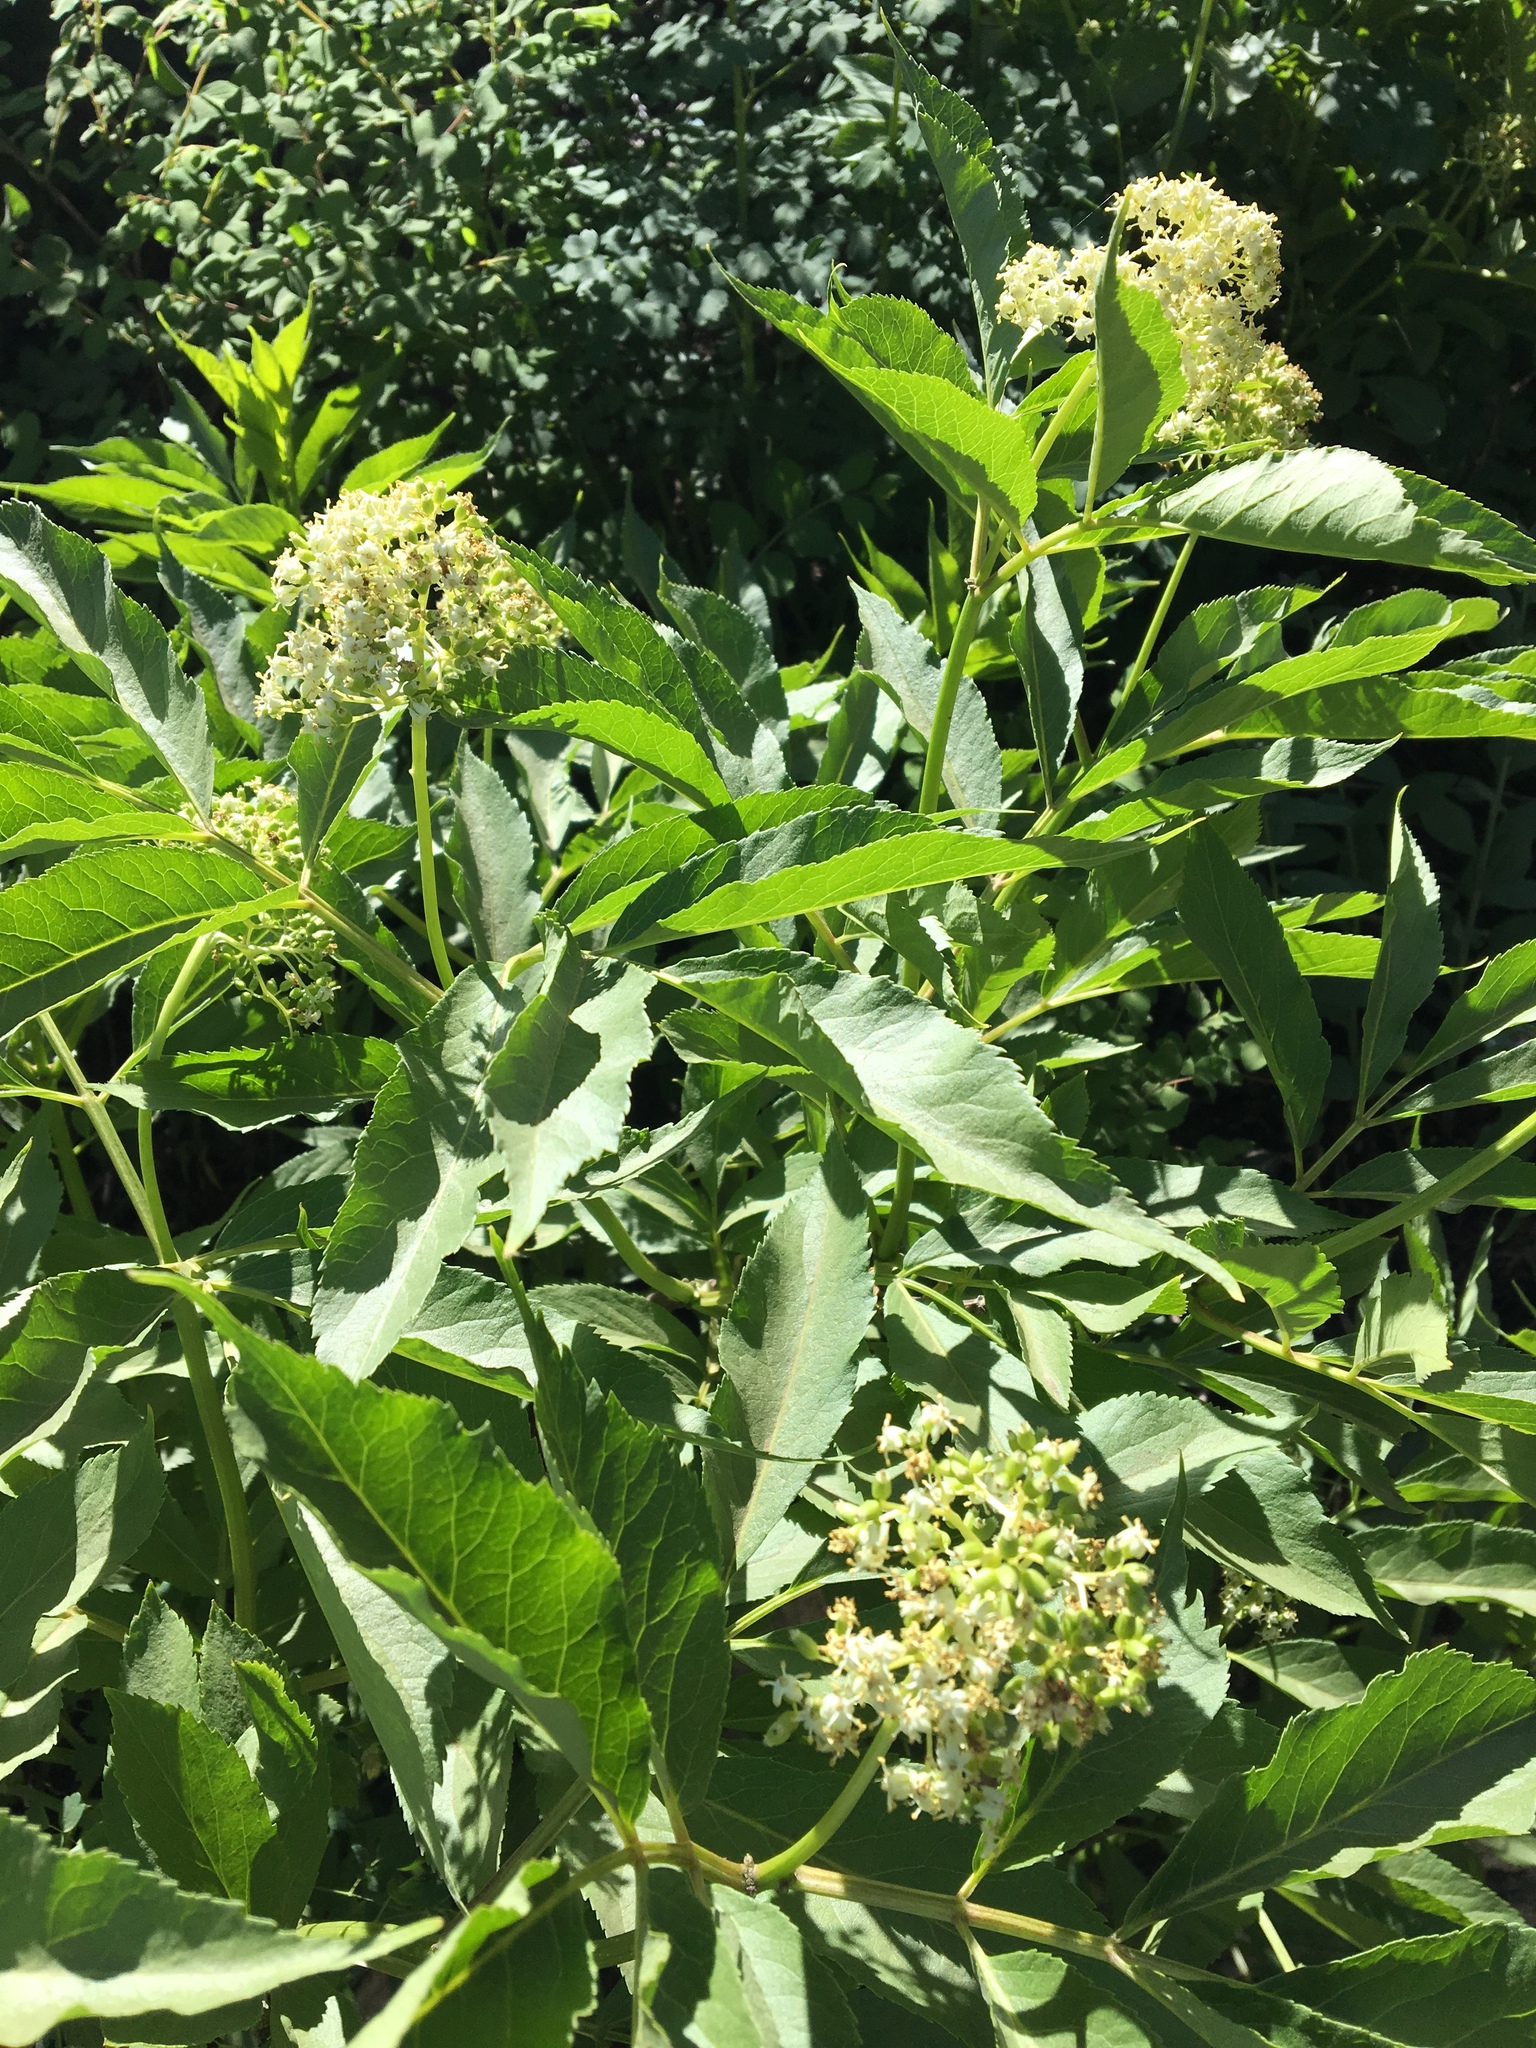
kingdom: Plantae
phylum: Tracheophyta
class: Magnoliopsida
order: Dipsacales
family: Viburnaceae
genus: Sambucus
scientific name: Sambucus racemosa
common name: Red-berried elder
